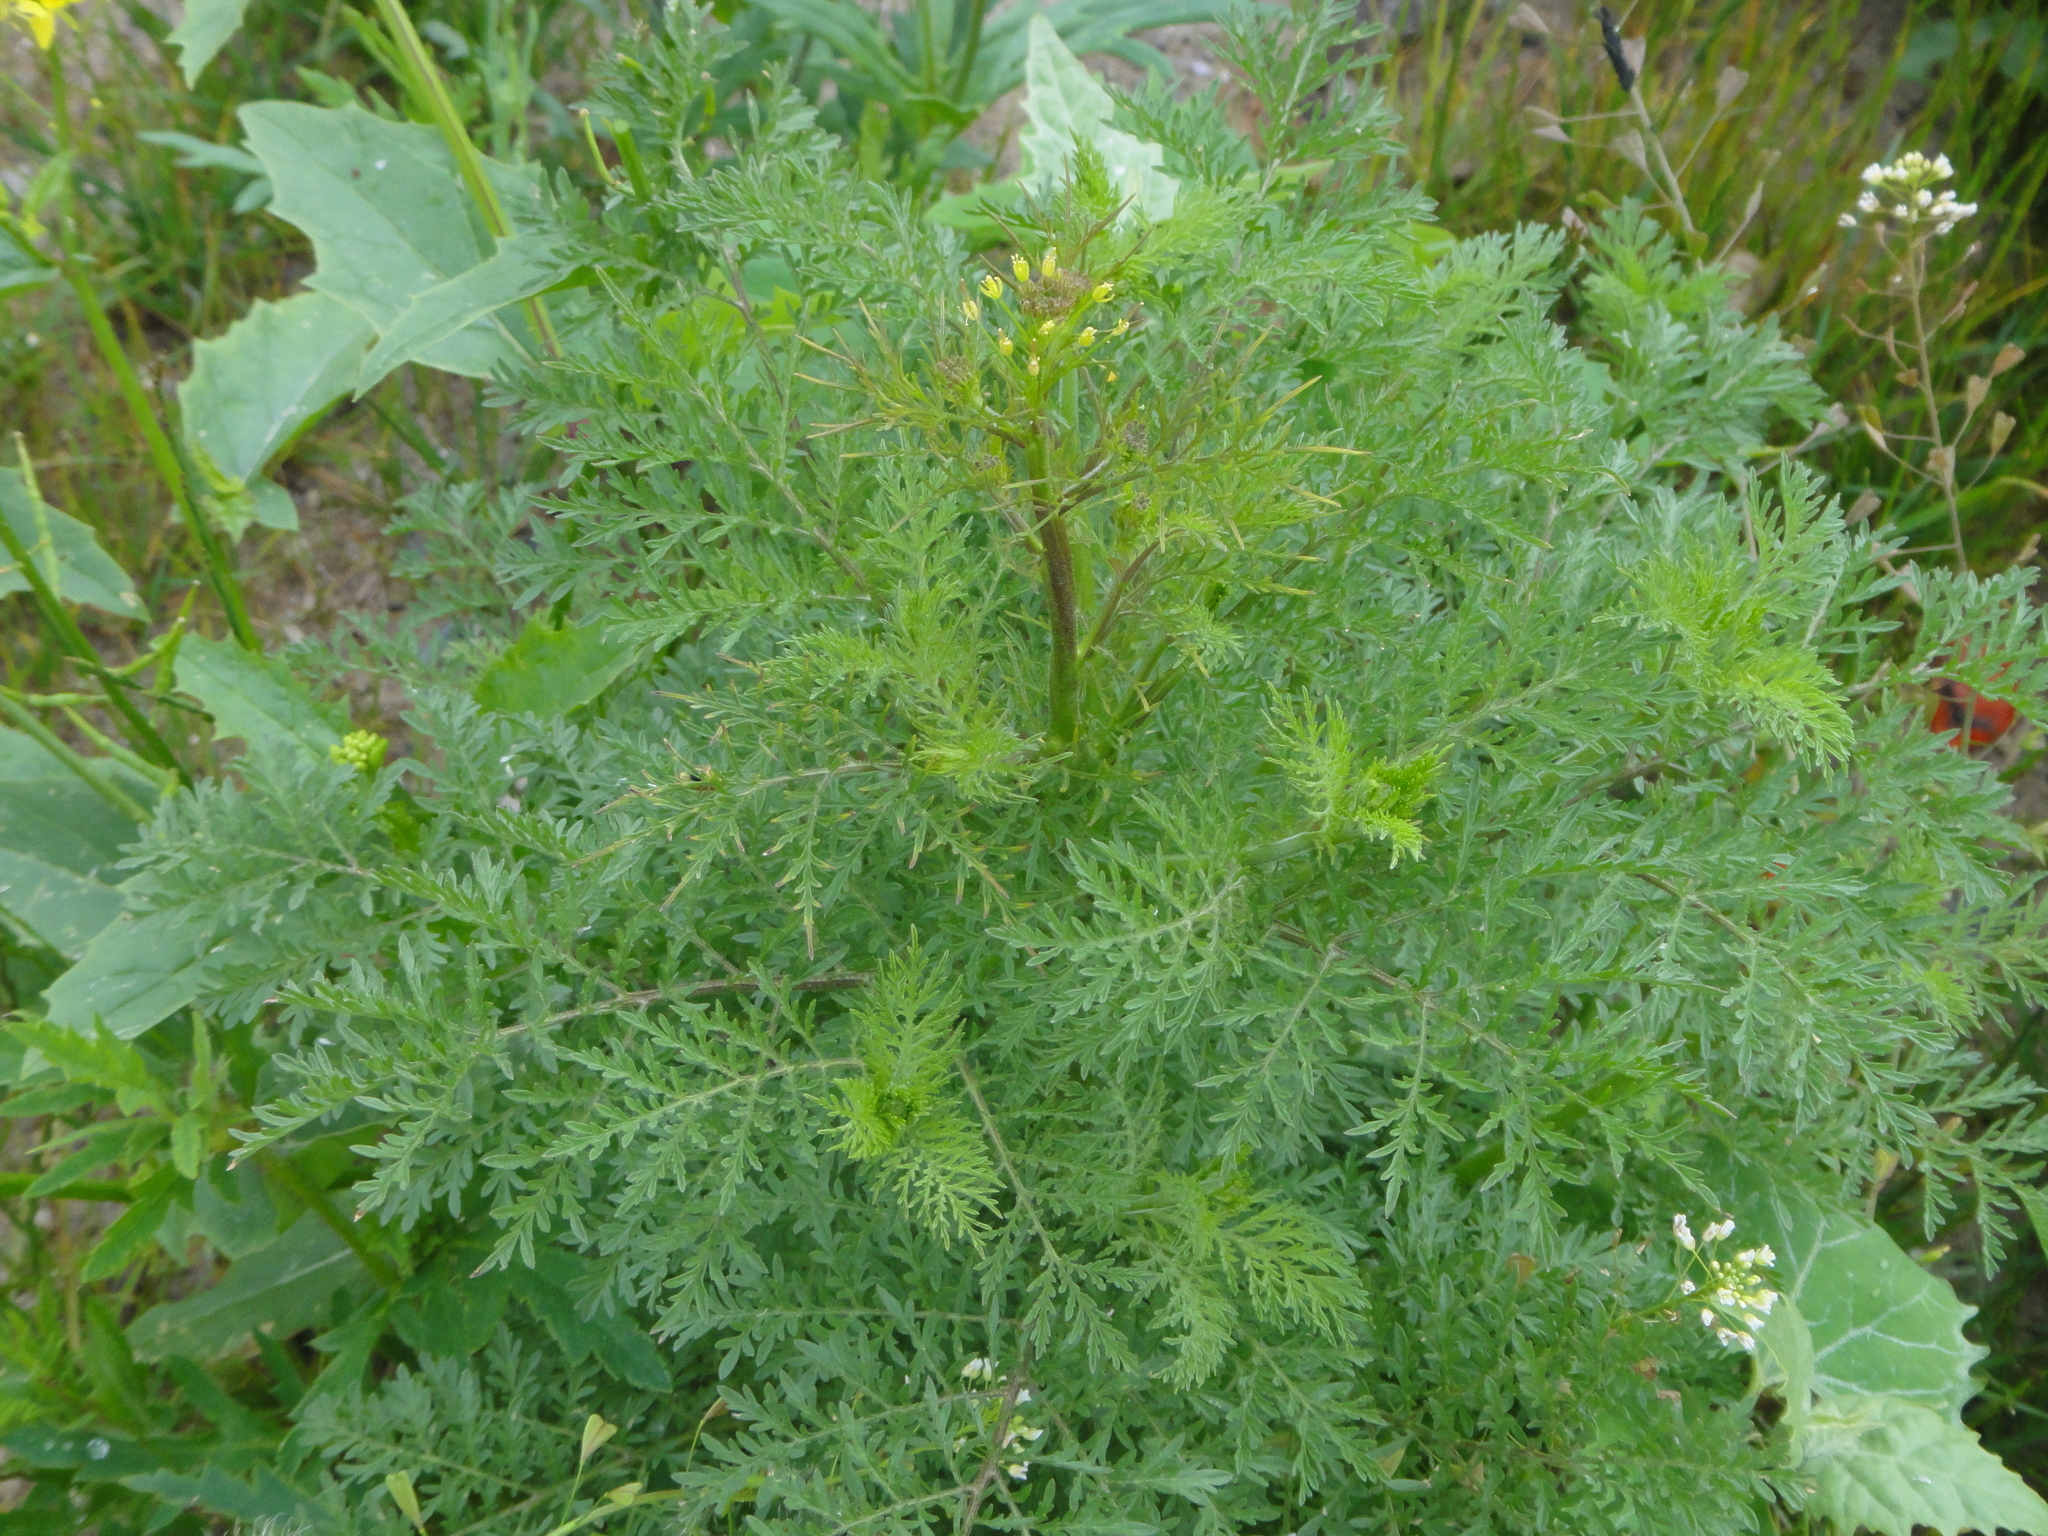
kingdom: Plantae
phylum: Tracheophyta
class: Magnoliopsida
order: Brassicales
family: Brassicaceae
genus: Descurainia
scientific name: Descurainia sophia
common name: Flixweed
